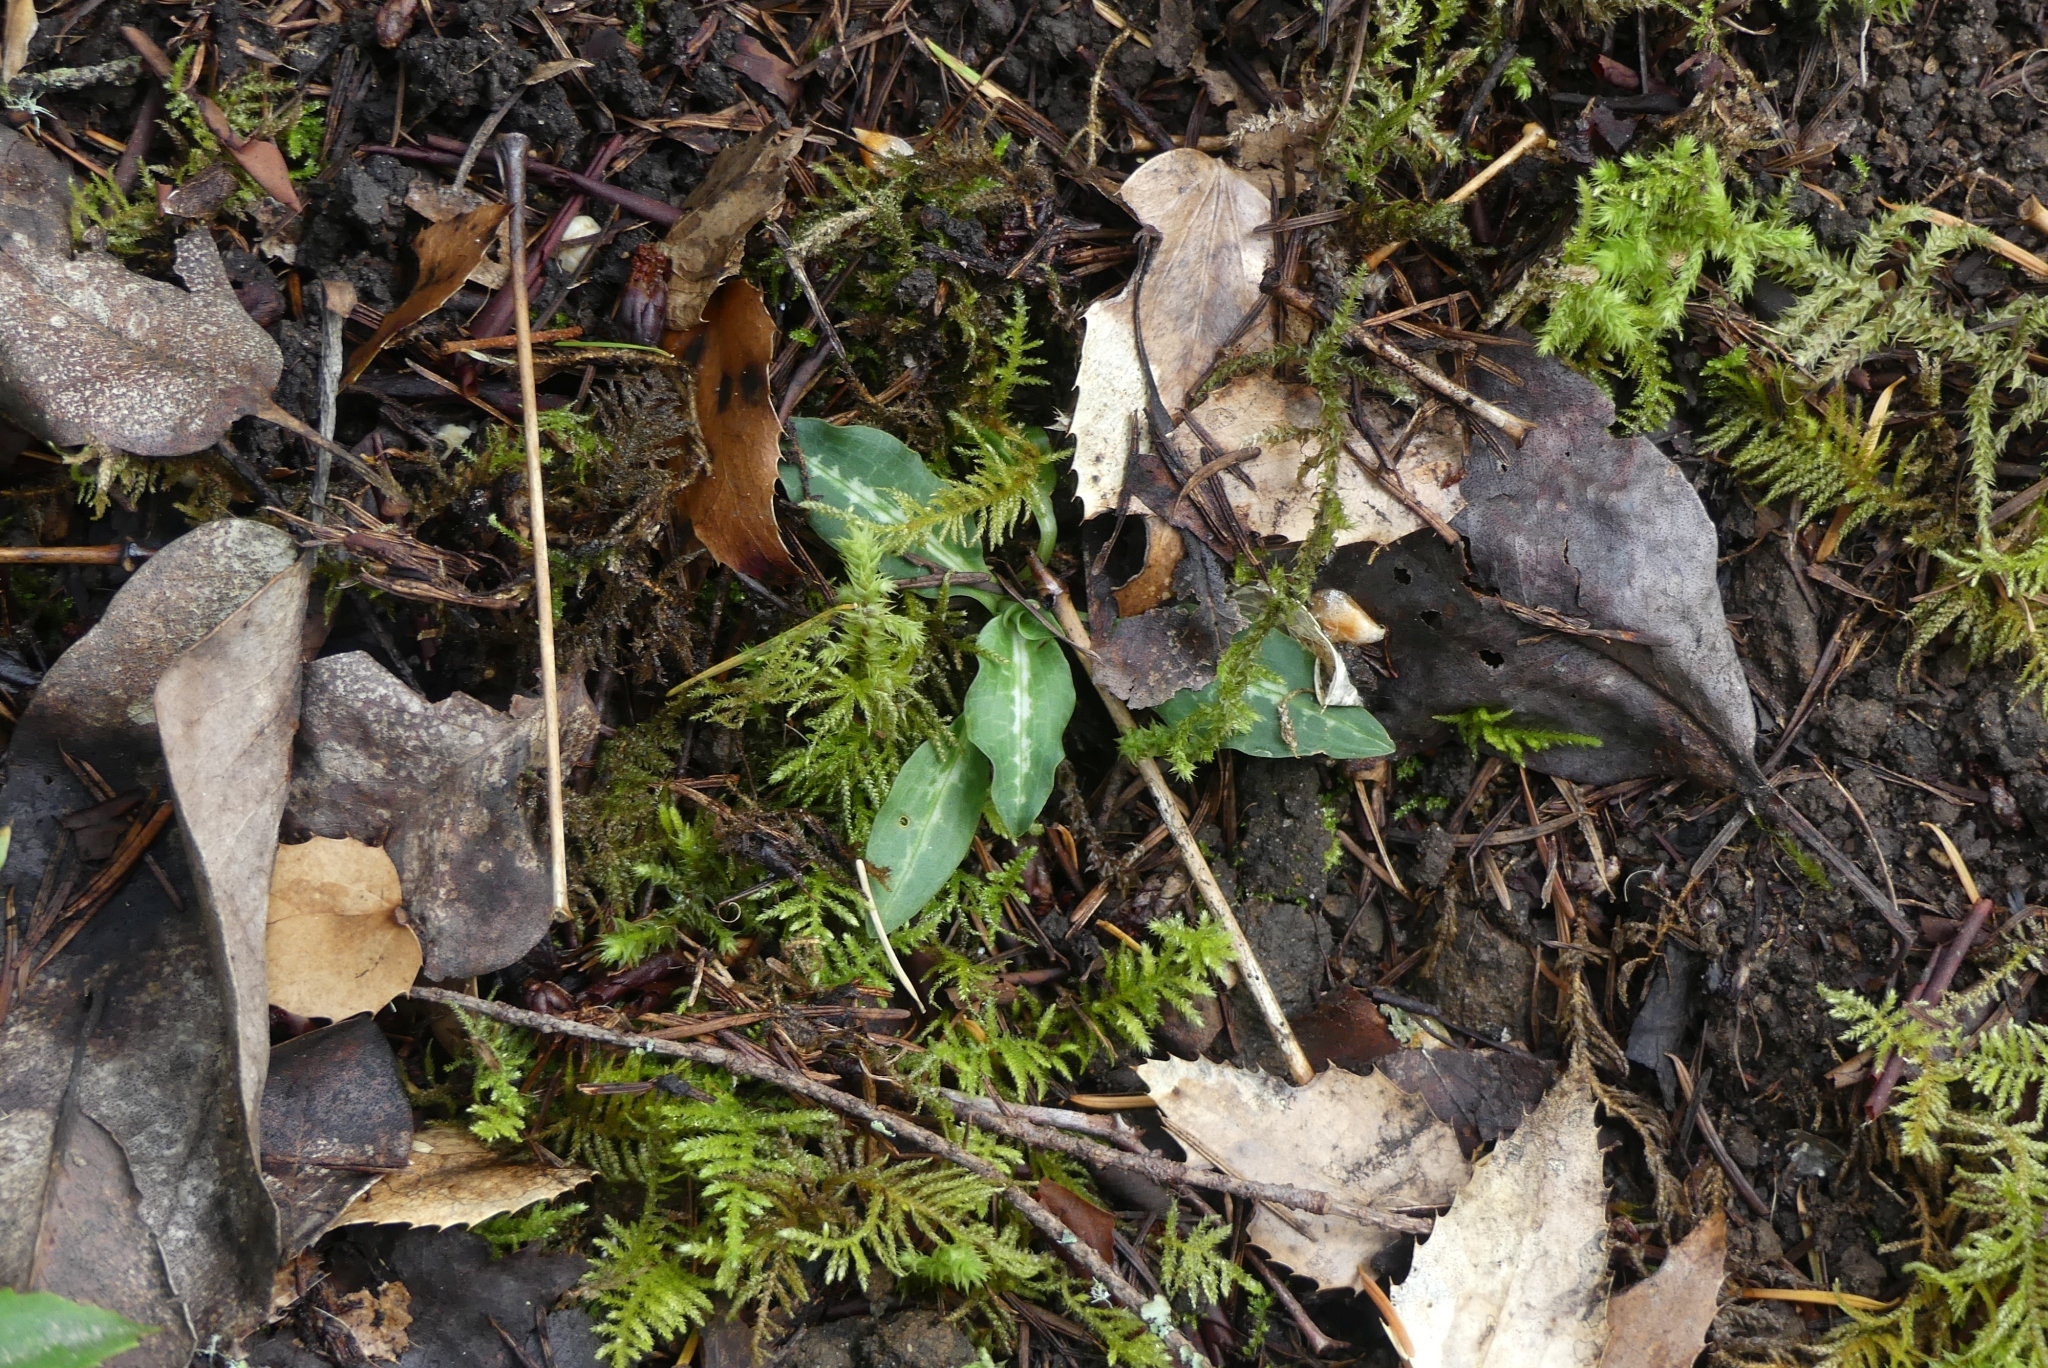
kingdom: Plantae
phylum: Tracheophyta
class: Liliopsida
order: Asparagales
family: Orchidaceae
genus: Goodyera
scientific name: Goodyera oblongifolia
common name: Giant rattlesnake-plantain
